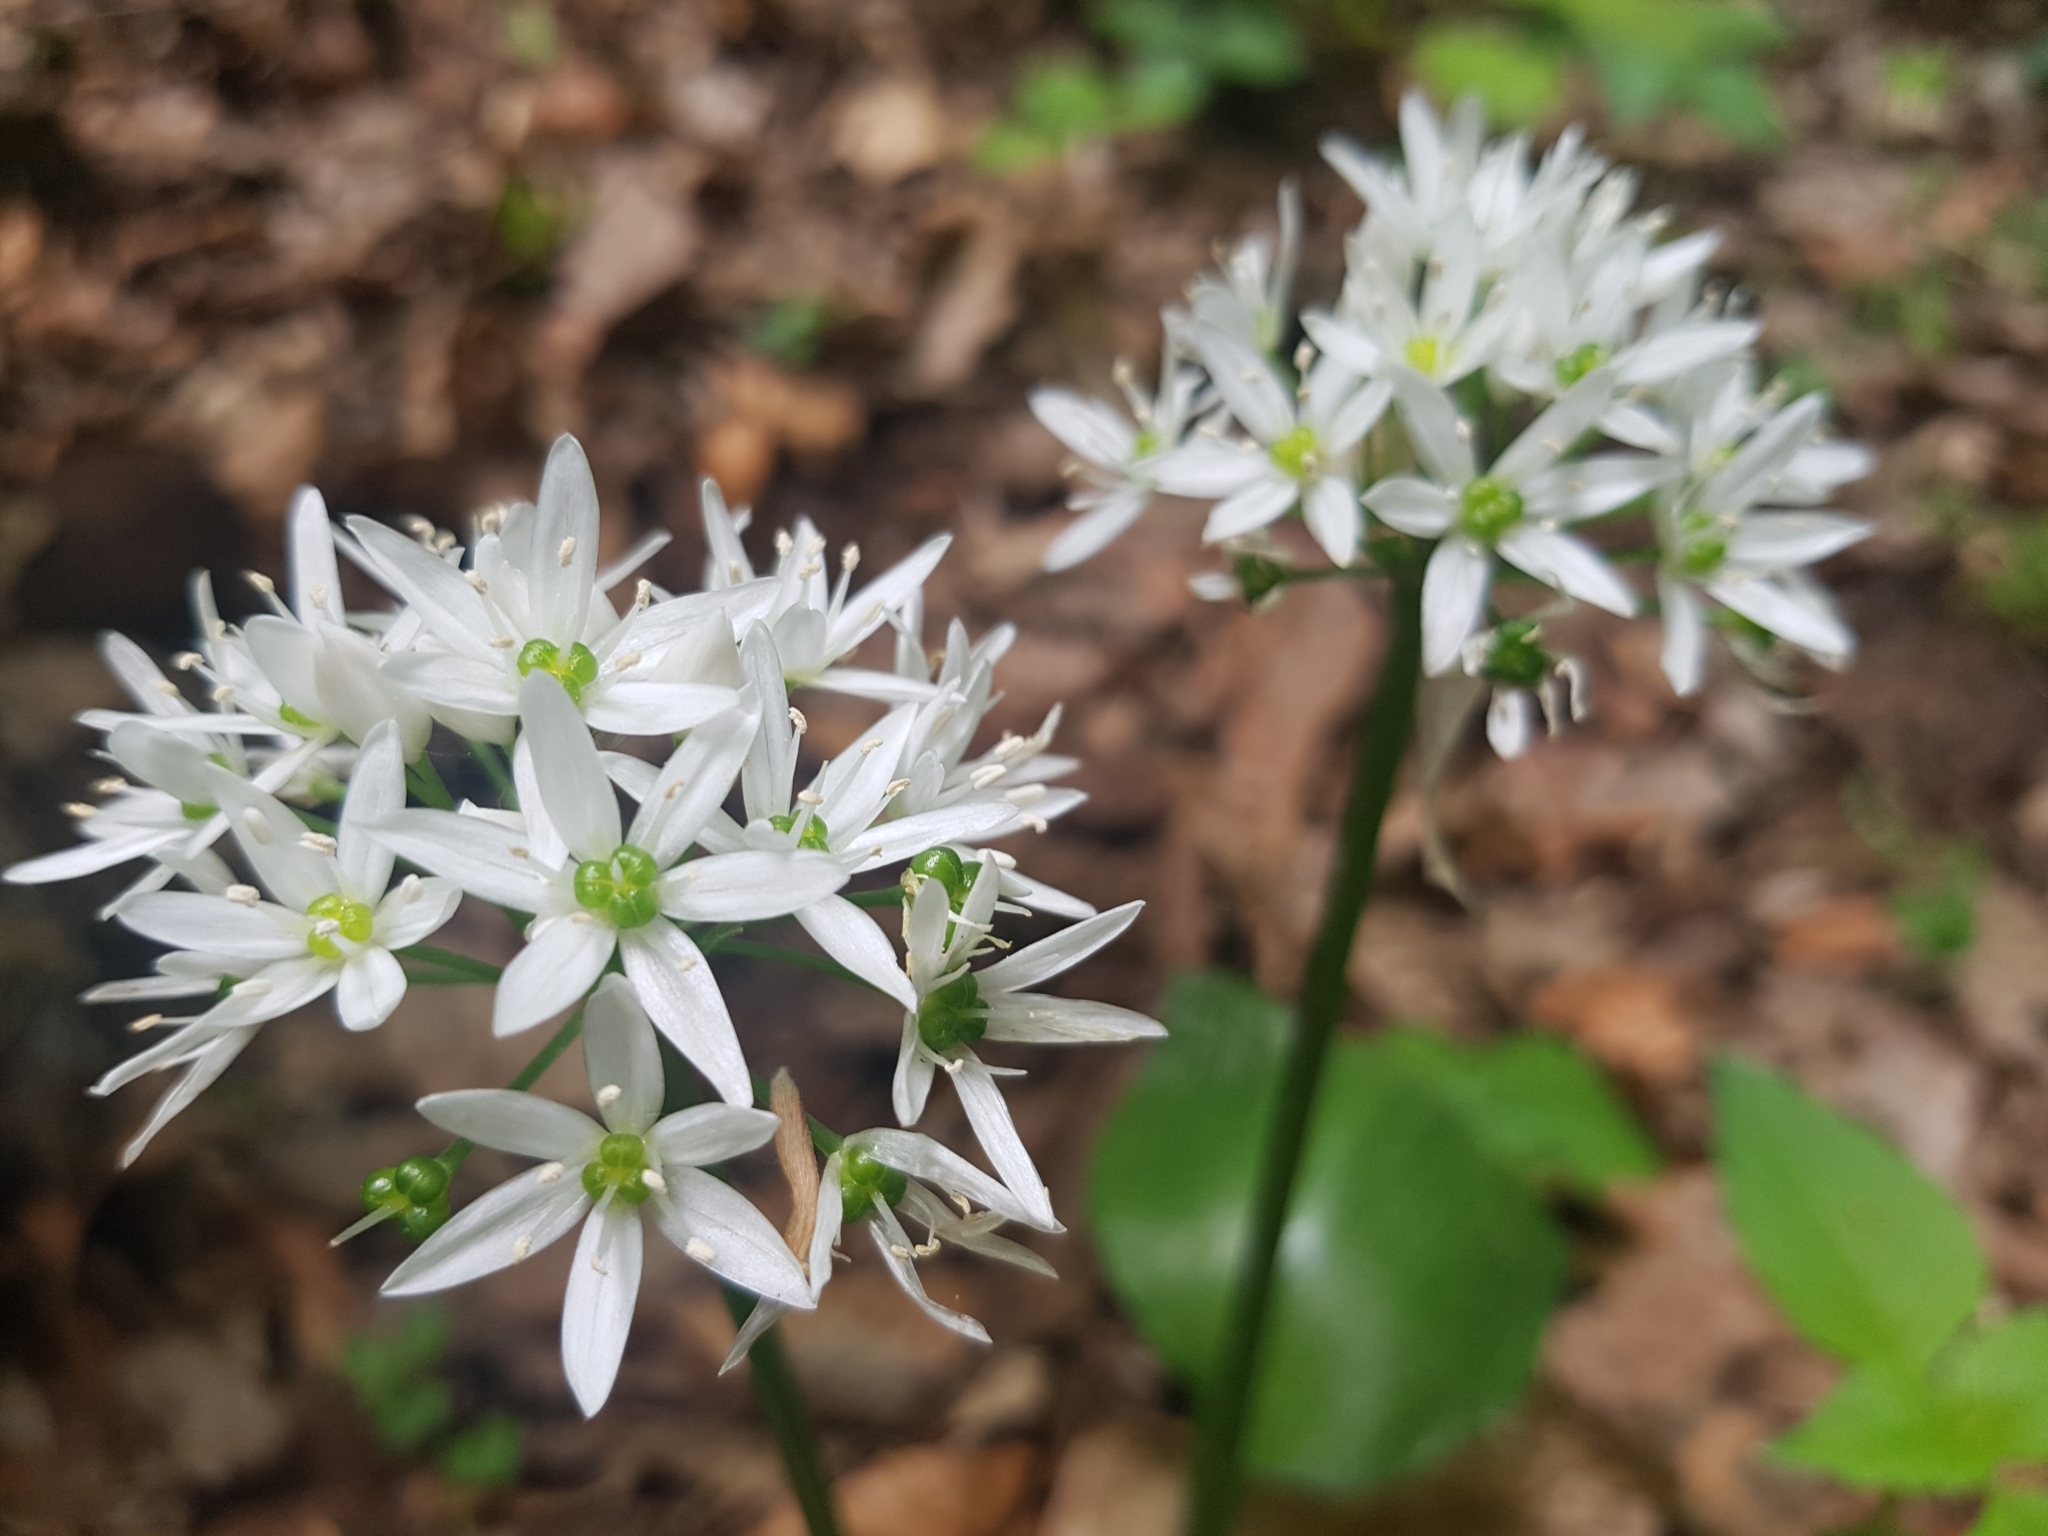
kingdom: Plantae
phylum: Tracheophyta
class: Liliopsida
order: Asparagales
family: Amaryllidaceae
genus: Allium
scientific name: Allium ursinum
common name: Ramsons
